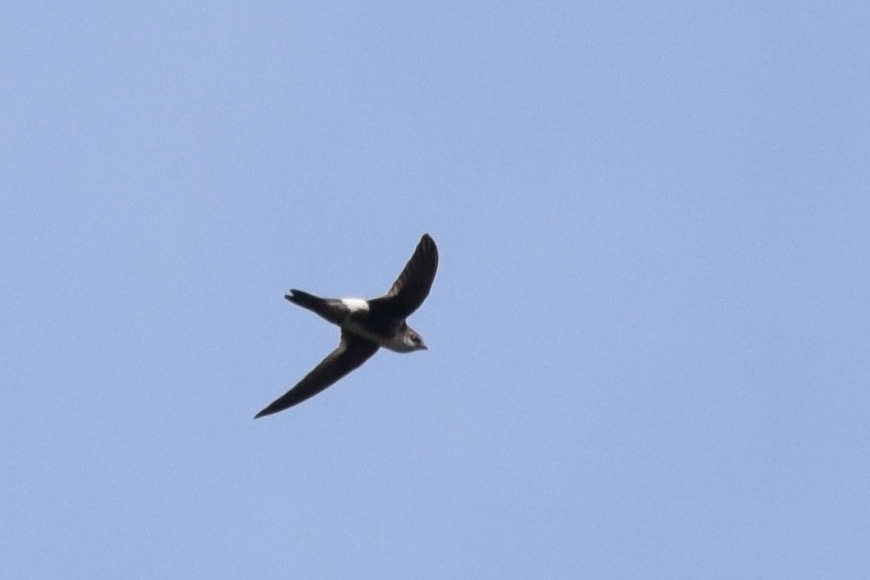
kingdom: Animalia
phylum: Chordata
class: Aves
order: Apodiformes
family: Apodidae
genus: Aeronautes
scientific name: Aeronautes saxatalis
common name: White-throated swift
